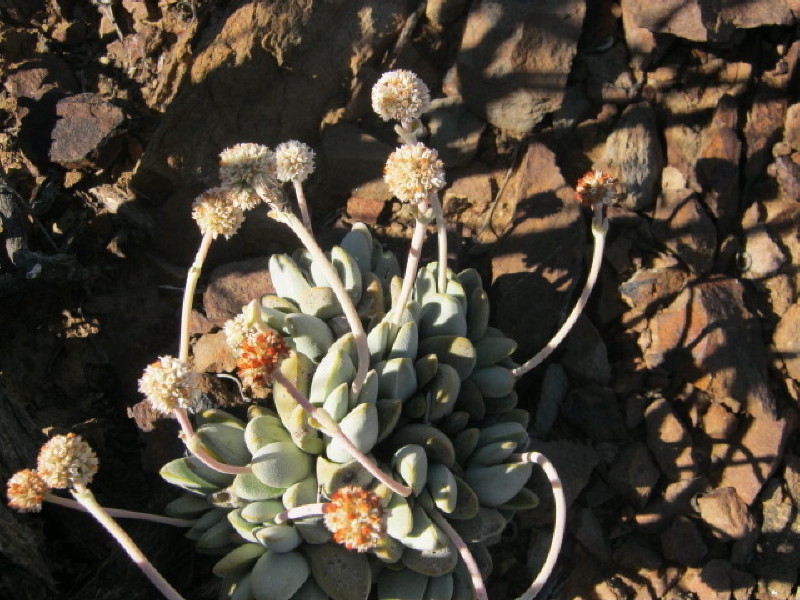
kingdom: Plantae
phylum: Tracheophyta
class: Magnoliopsida
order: Saxifragales
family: Crassulaceae
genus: Crassula
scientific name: Crassula tecta
